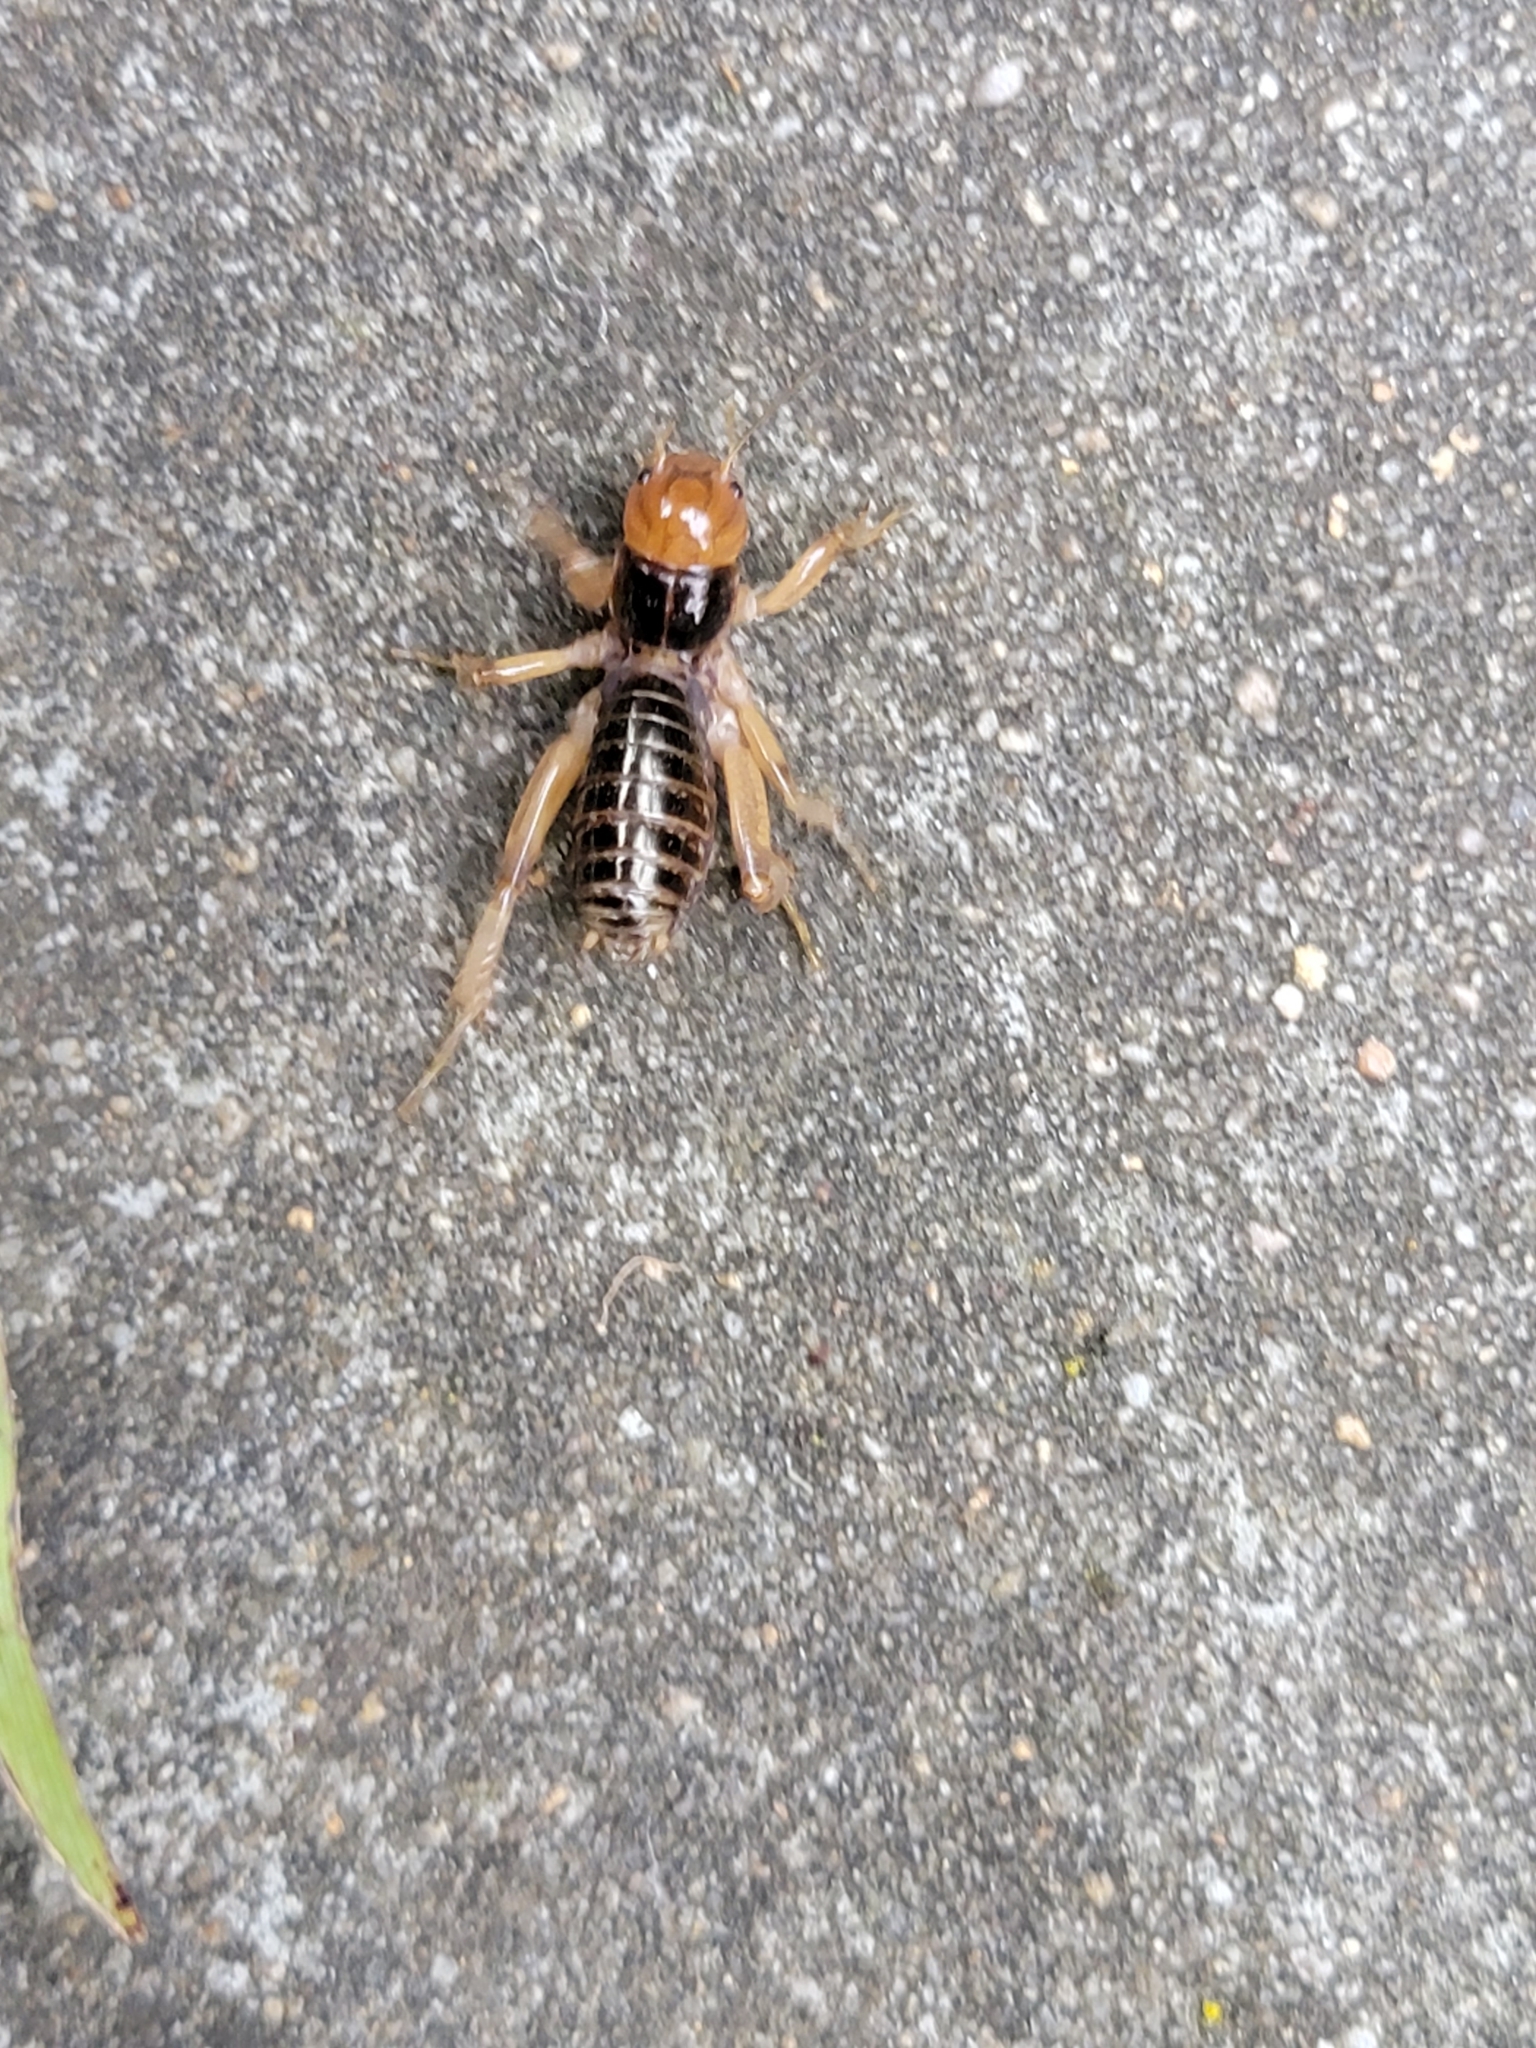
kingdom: Animalia
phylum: Arthropoda
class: Insecta
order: Orthoptera
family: Stenopelmatidae
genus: Ammopelmatus
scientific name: Ammopelmatus
